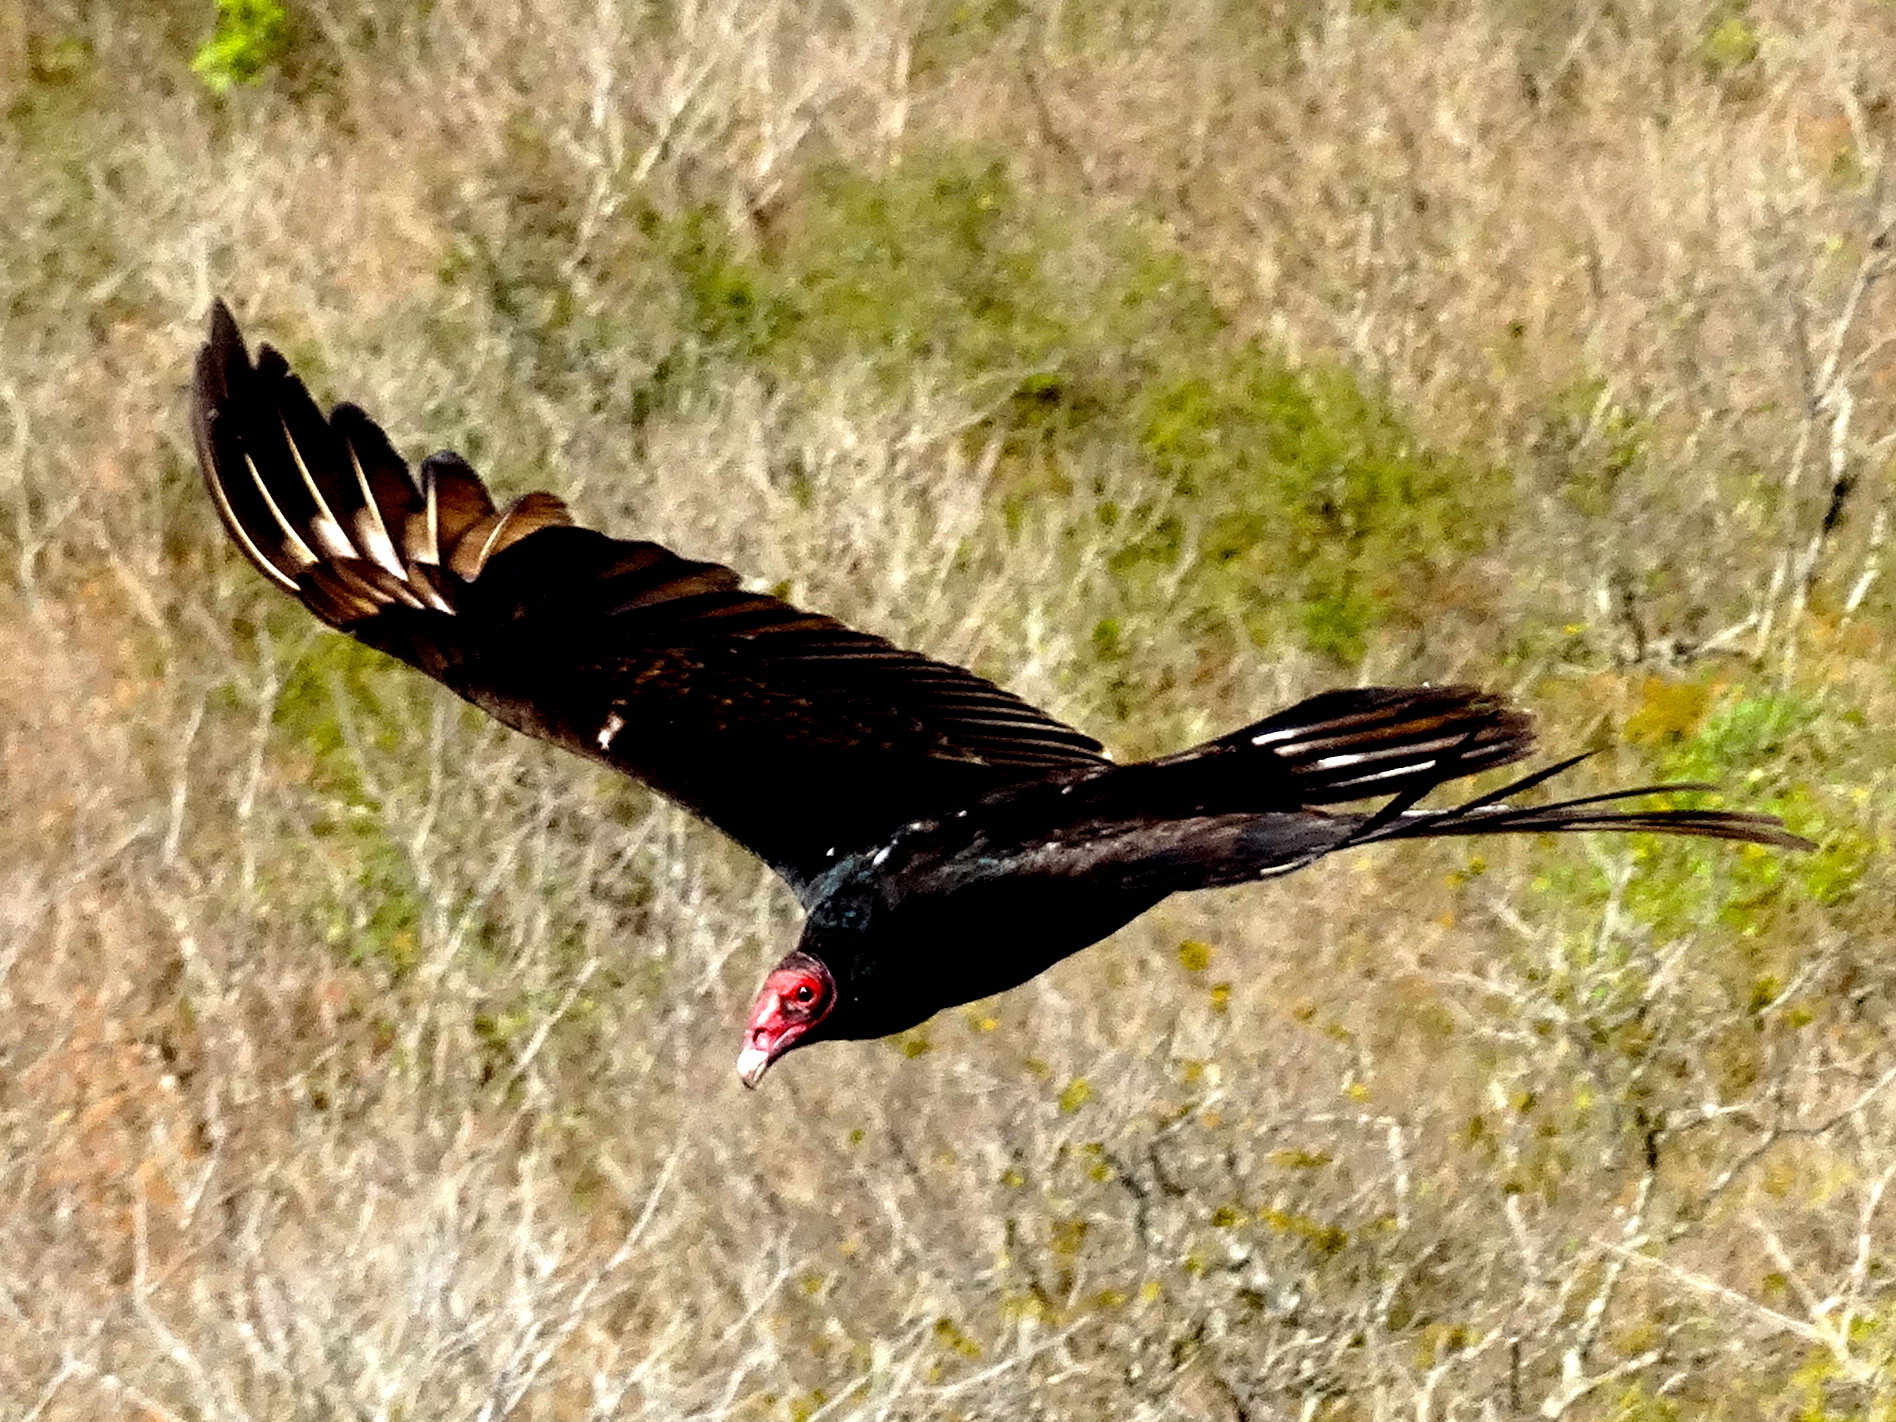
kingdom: Animalia
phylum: Chordata
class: Aves
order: Accipitriformes
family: Cathartidae
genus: Cathartes
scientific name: Cathartes aura
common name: Turkey vulture
